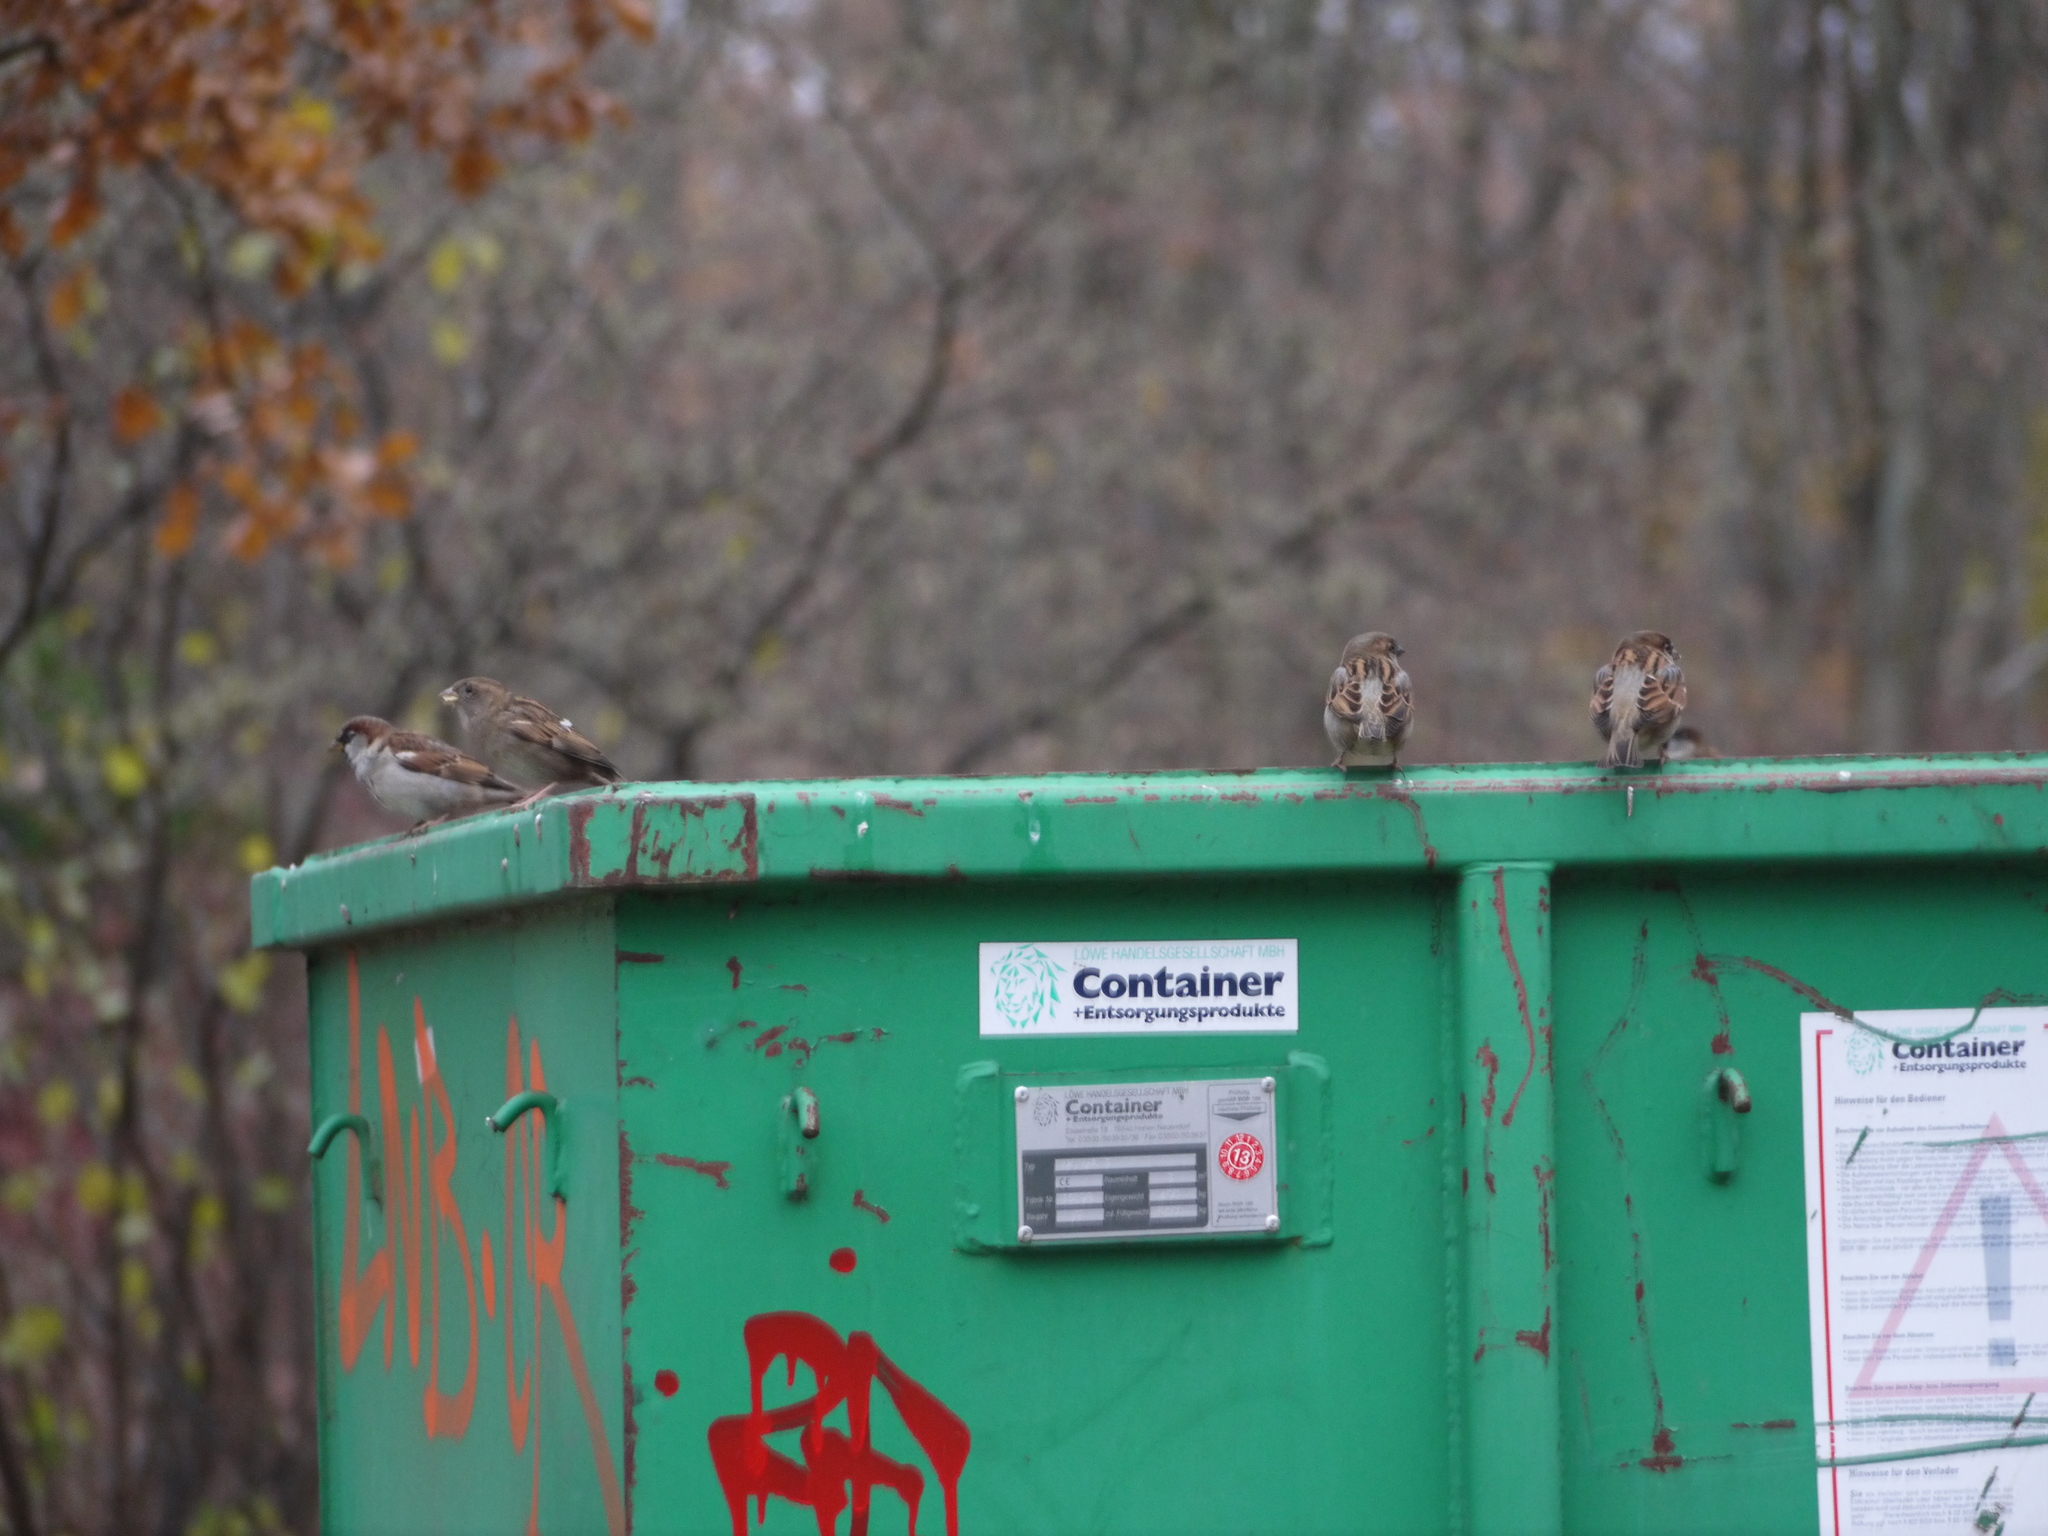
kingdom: Animalia
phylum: Chordata
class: Aves
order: Passeriformes
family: Passeridae
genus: Passer
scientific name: Passer domesticus
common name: House sparrow
